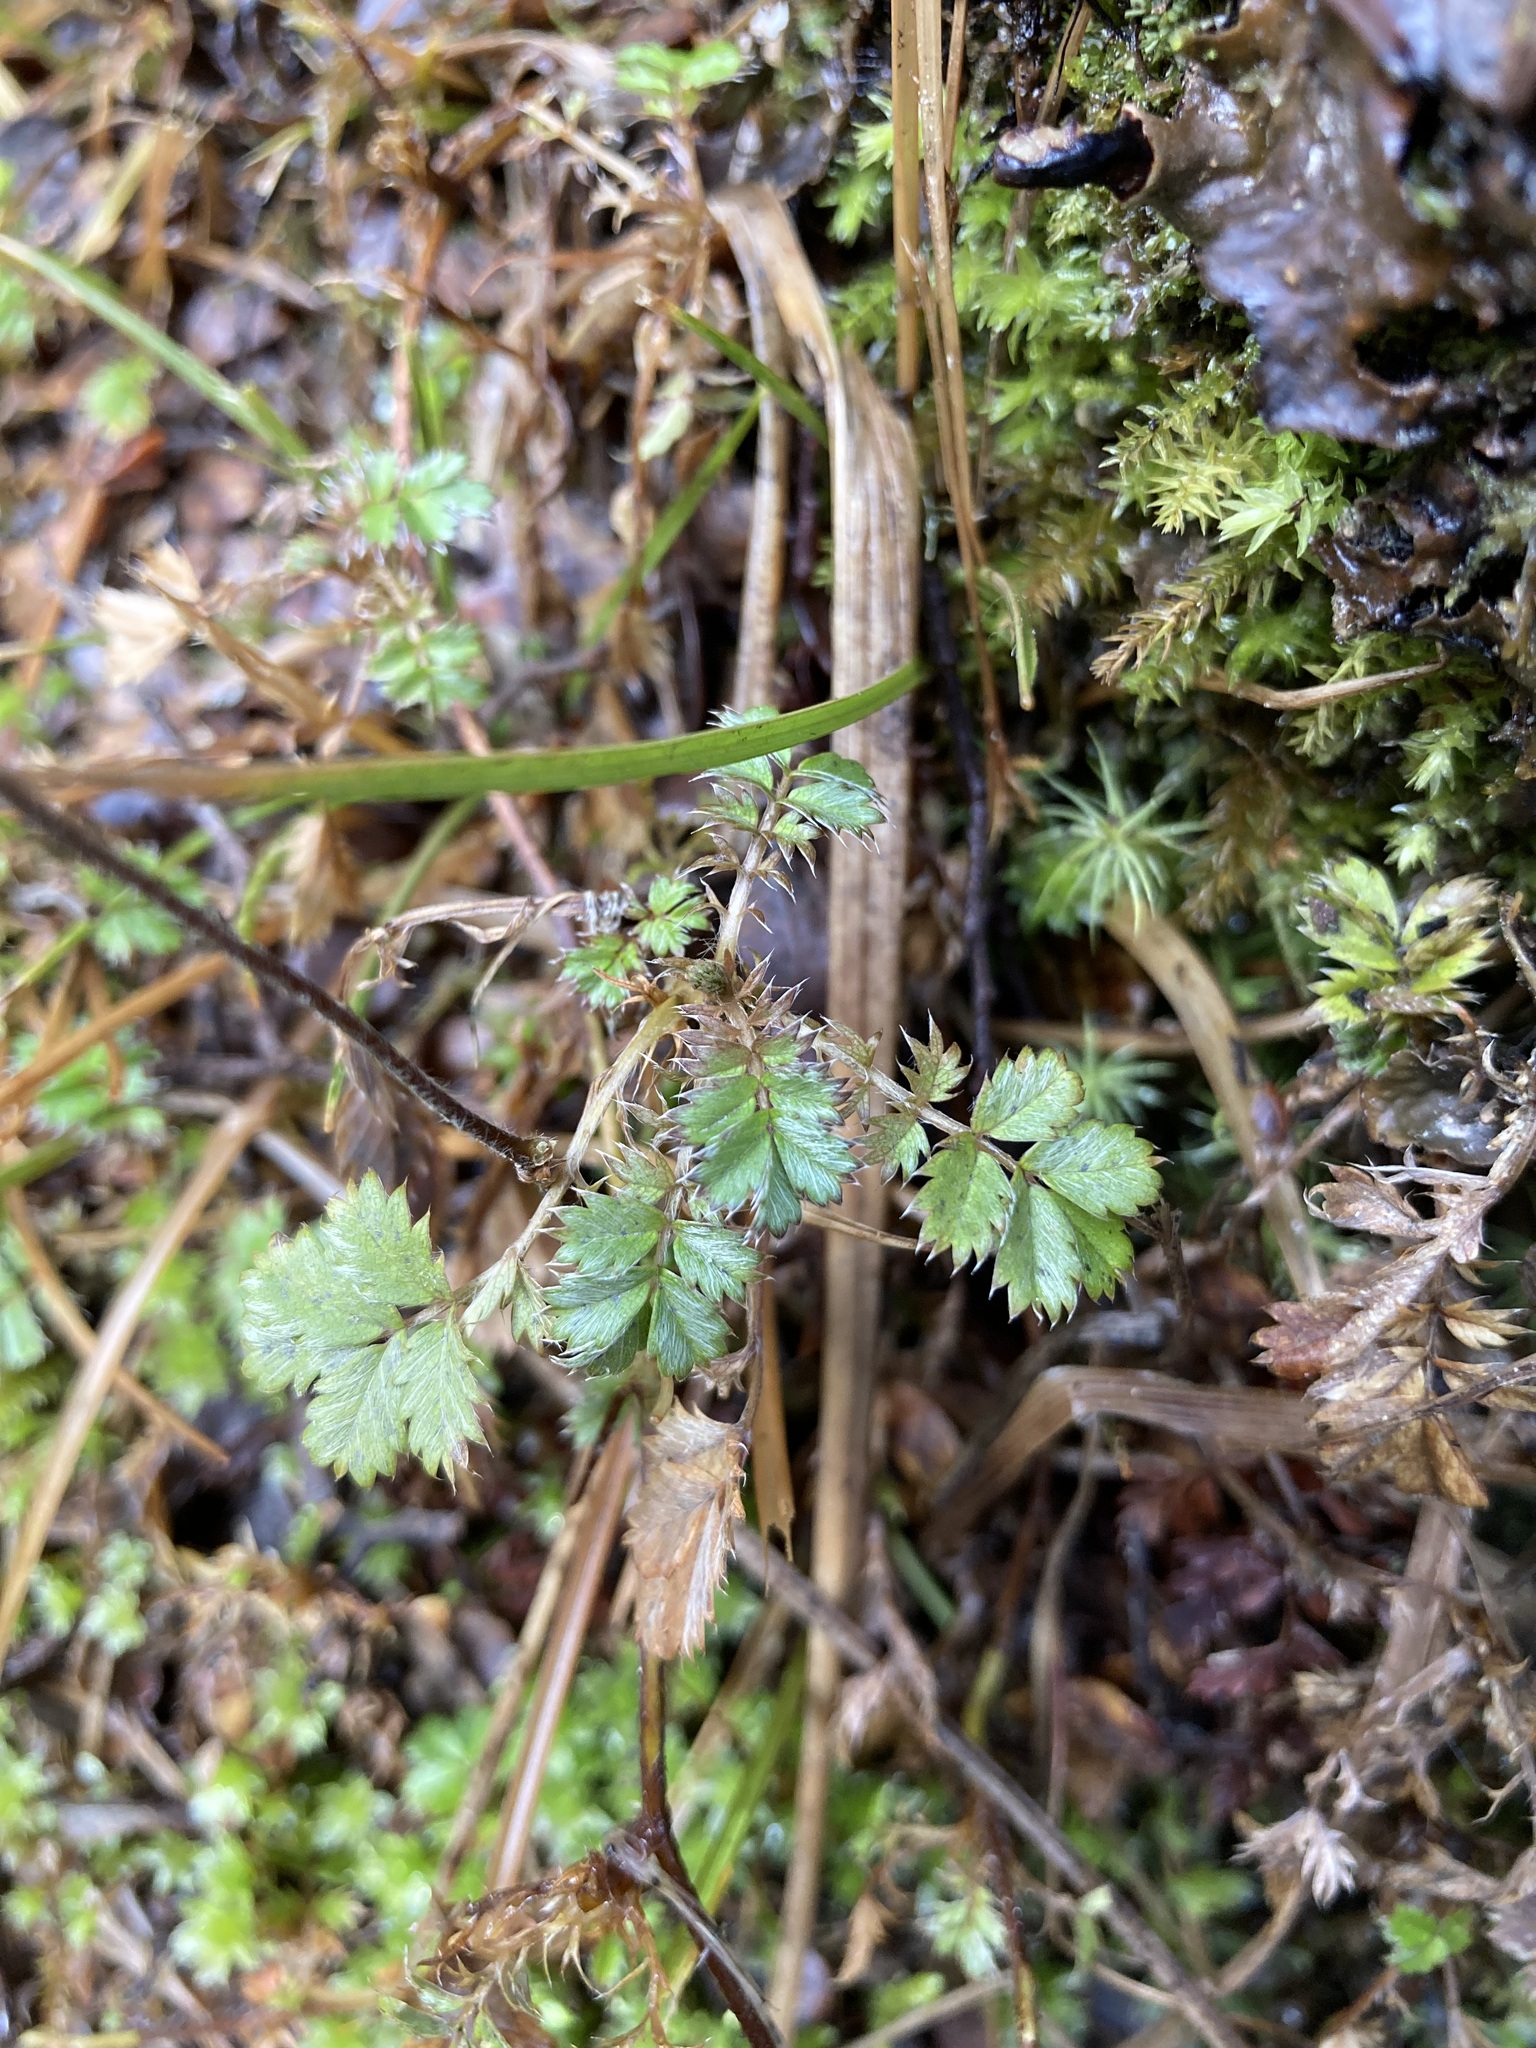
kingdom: Plantae
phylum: Tracheophyta
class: Magnoliopsida
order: Rosales
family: Rosaceae
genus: Acaena
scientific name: Acaena anserinifolia
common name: Bronze pirri-pirri-bur
